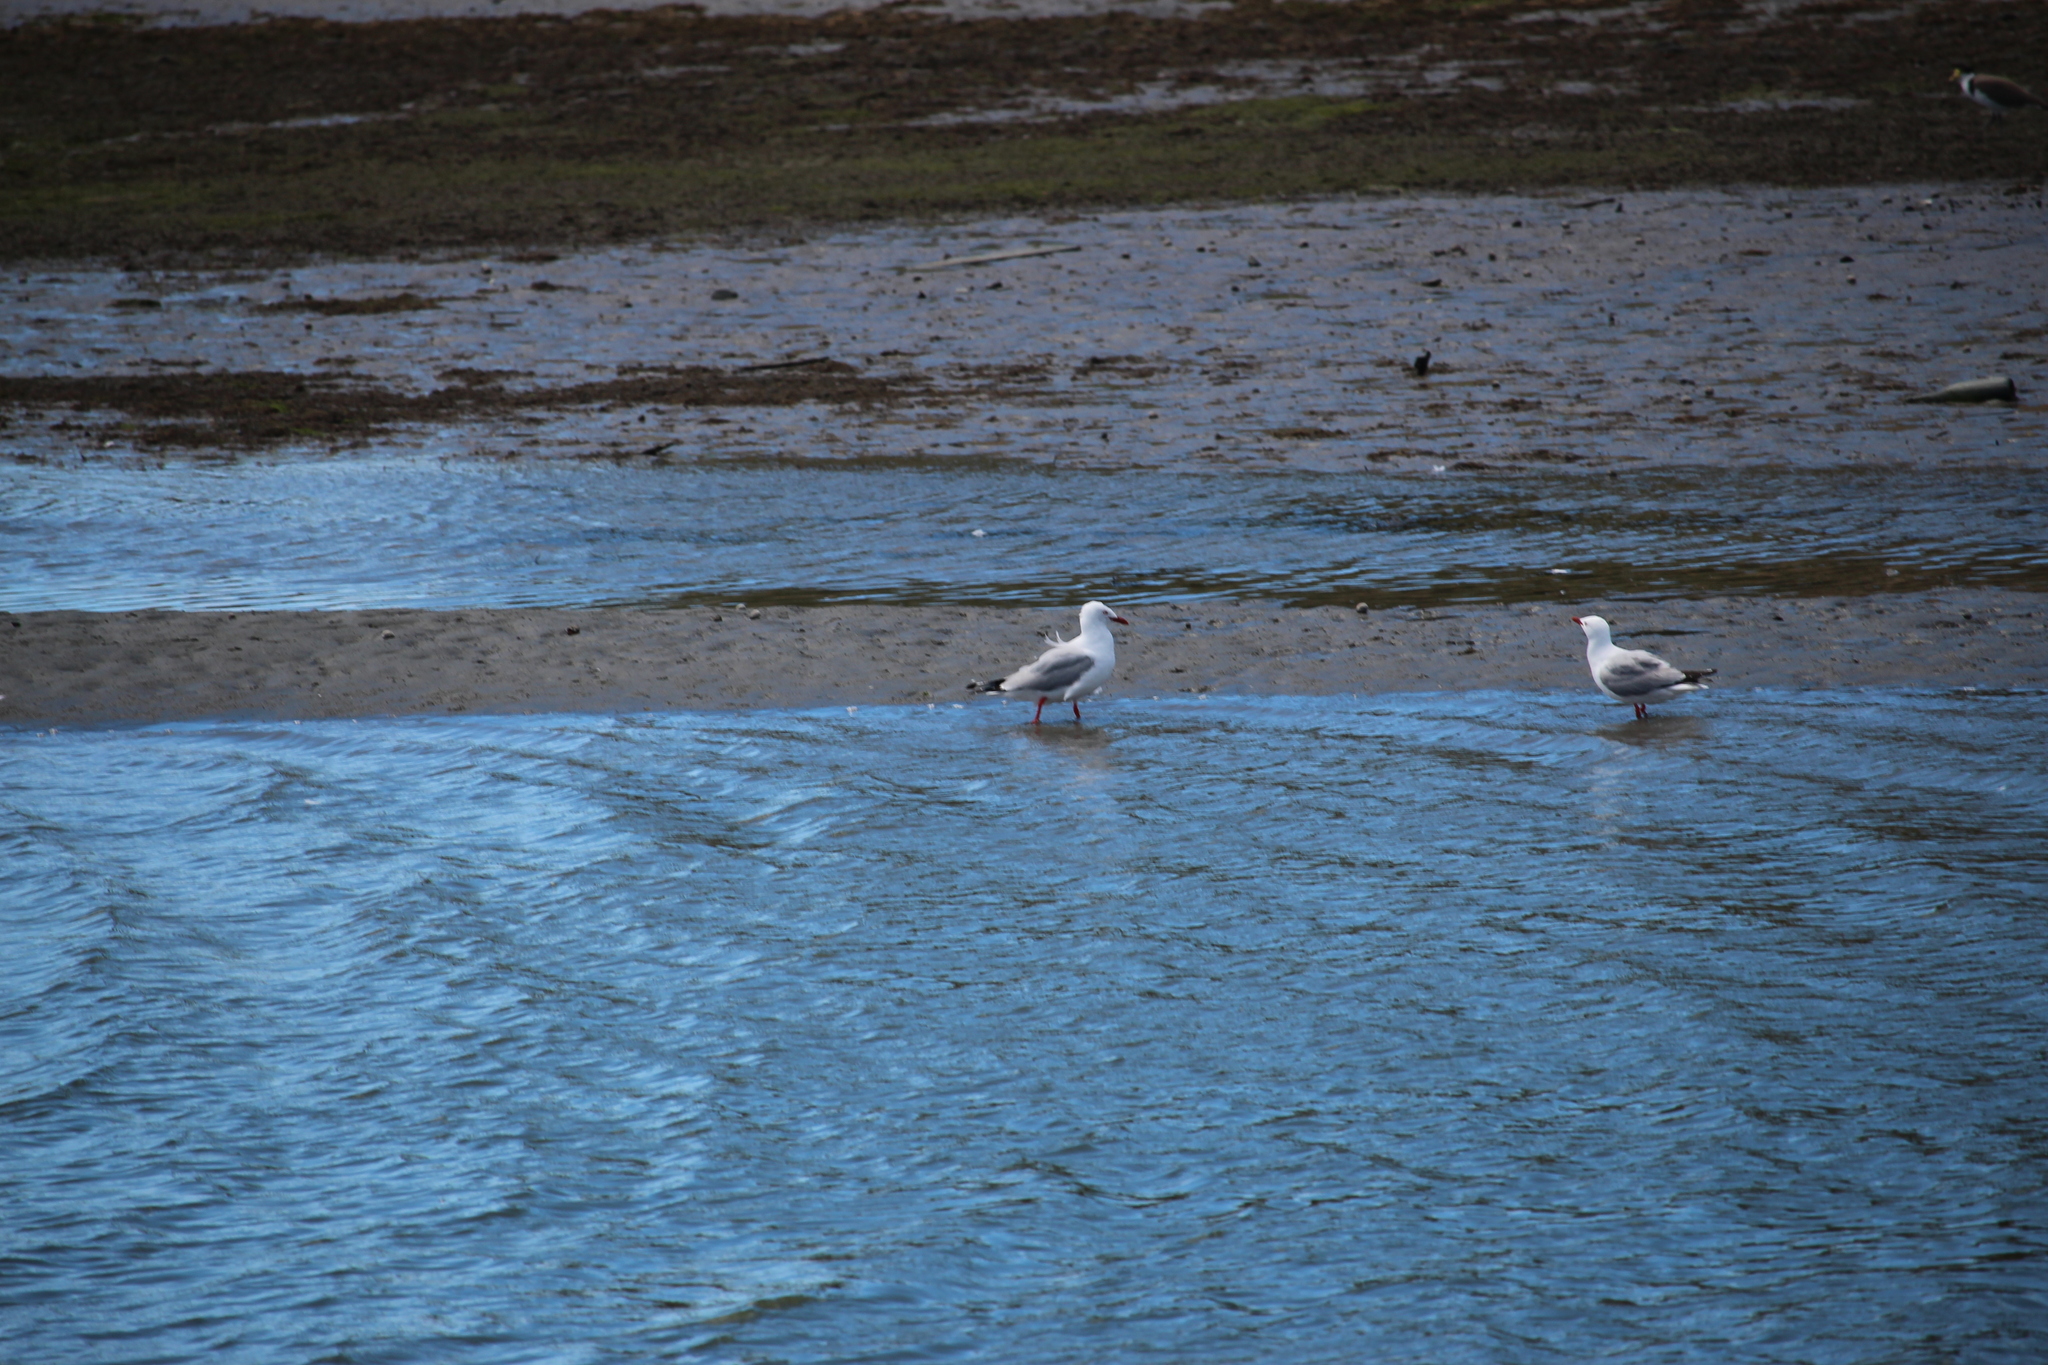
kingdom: Animalia
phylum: Chordata
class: Aves
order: Charadriiformes
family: Laridae
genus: Chroicocephalus
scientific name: Chroicocephalus novaehollandiae
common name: Silver gull
